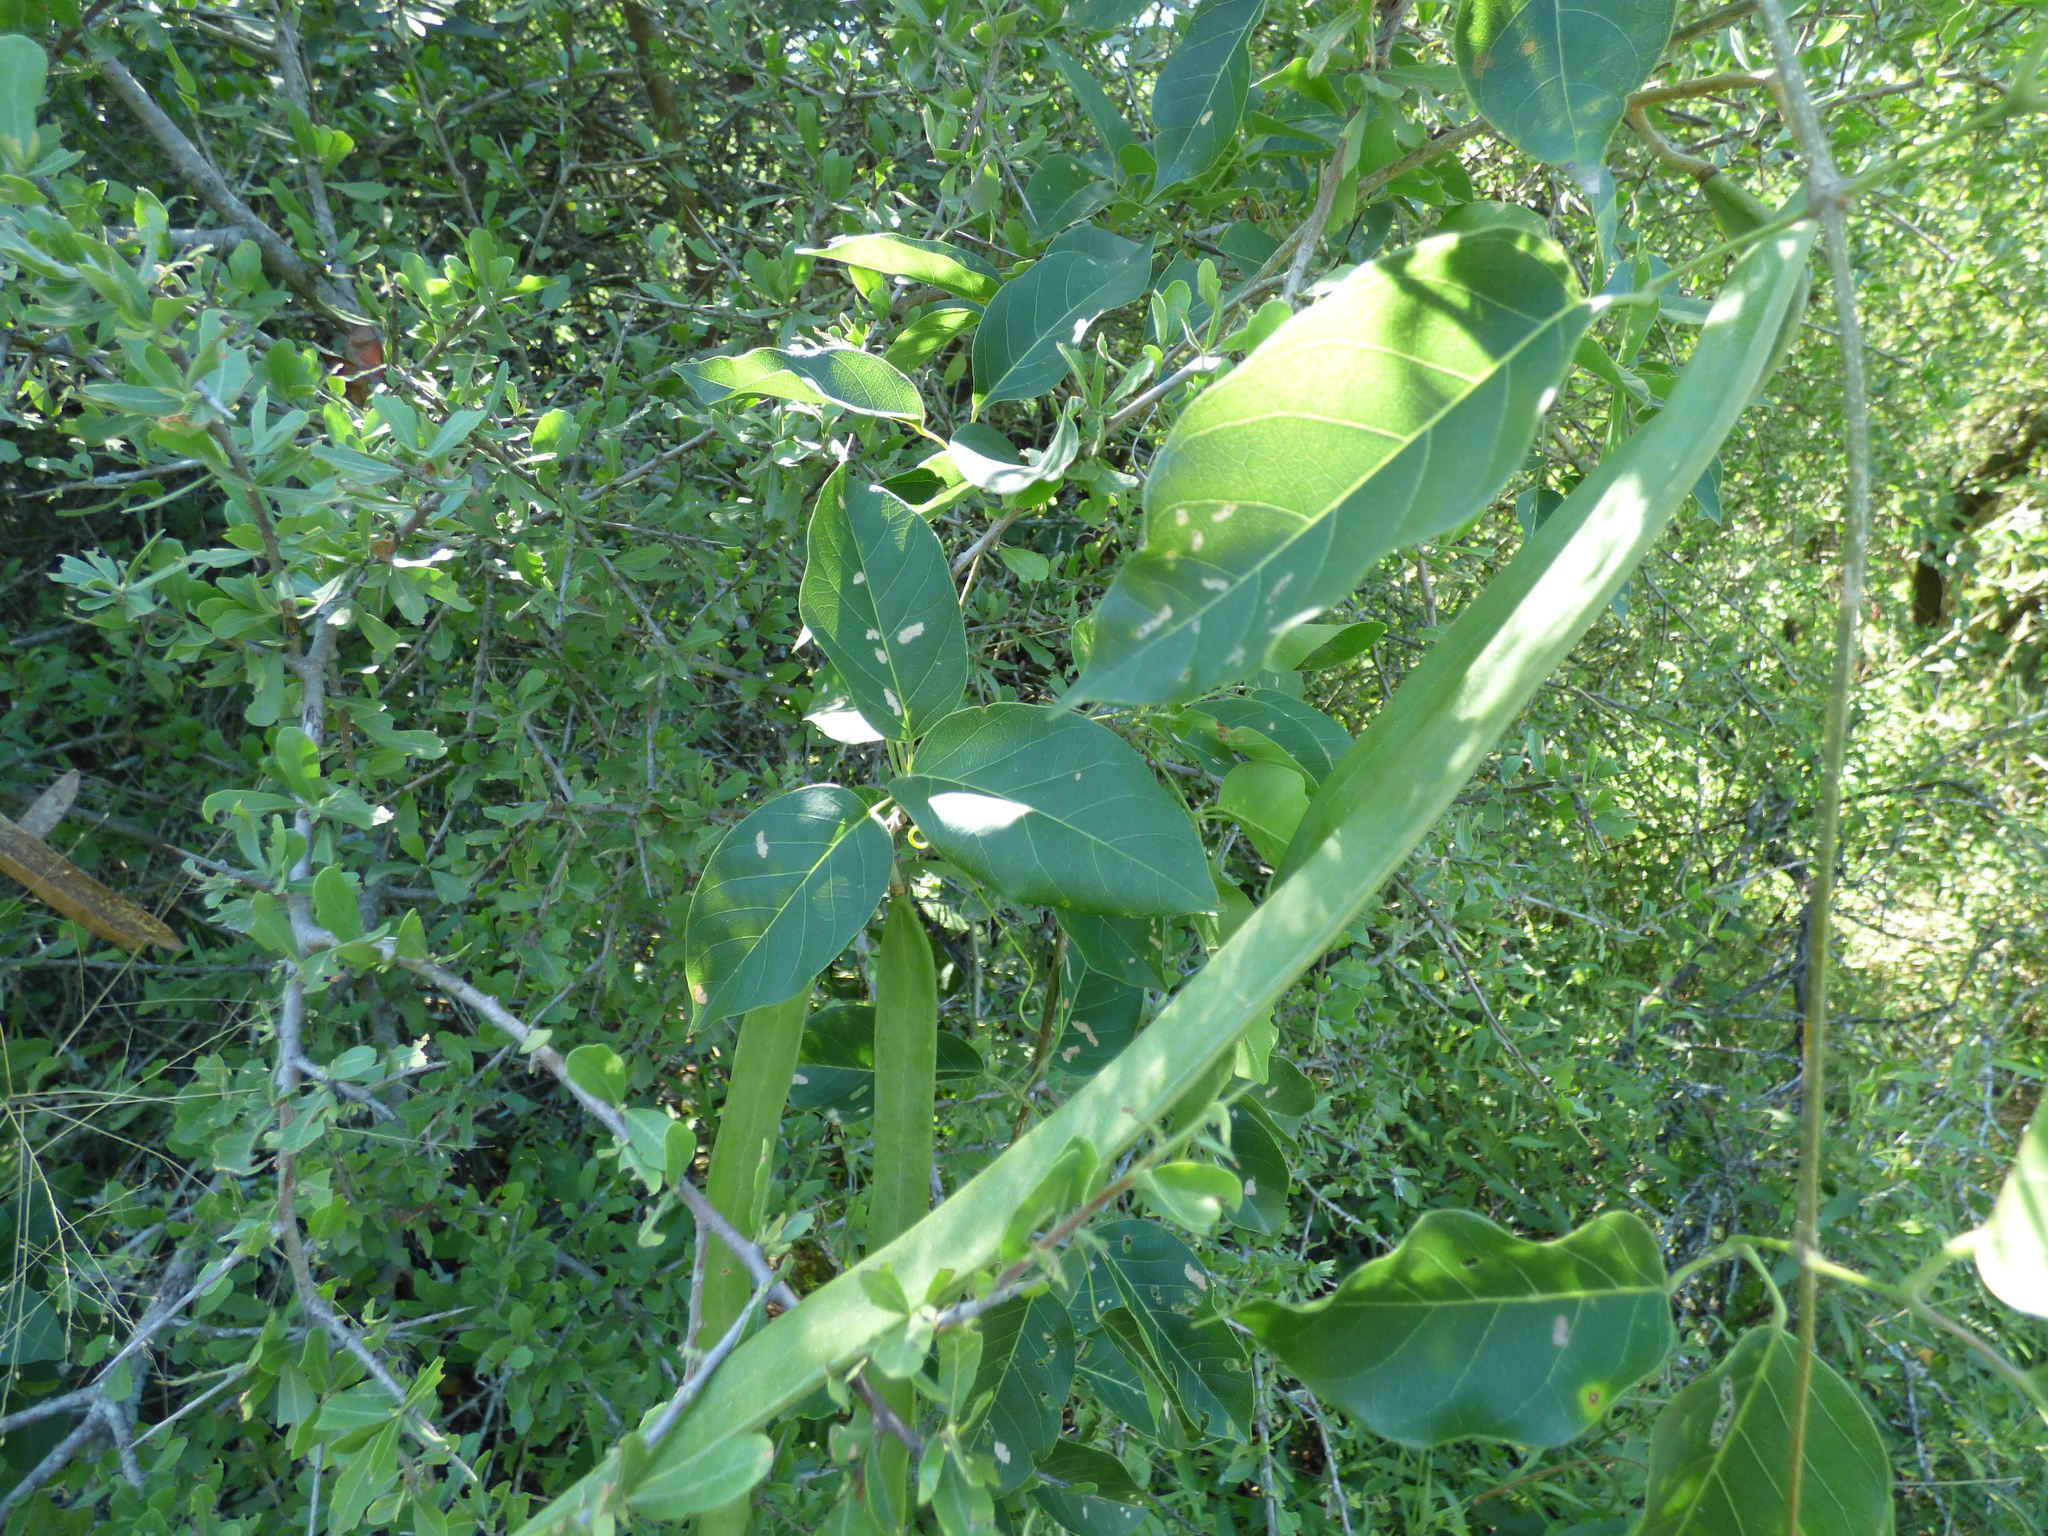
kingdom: Plantae
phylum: Tracheophyta
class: Magnoliopsida
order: Lamiales
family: Bignoniaceae
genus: Tanaecium
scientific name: Tanaecium dichotomum
